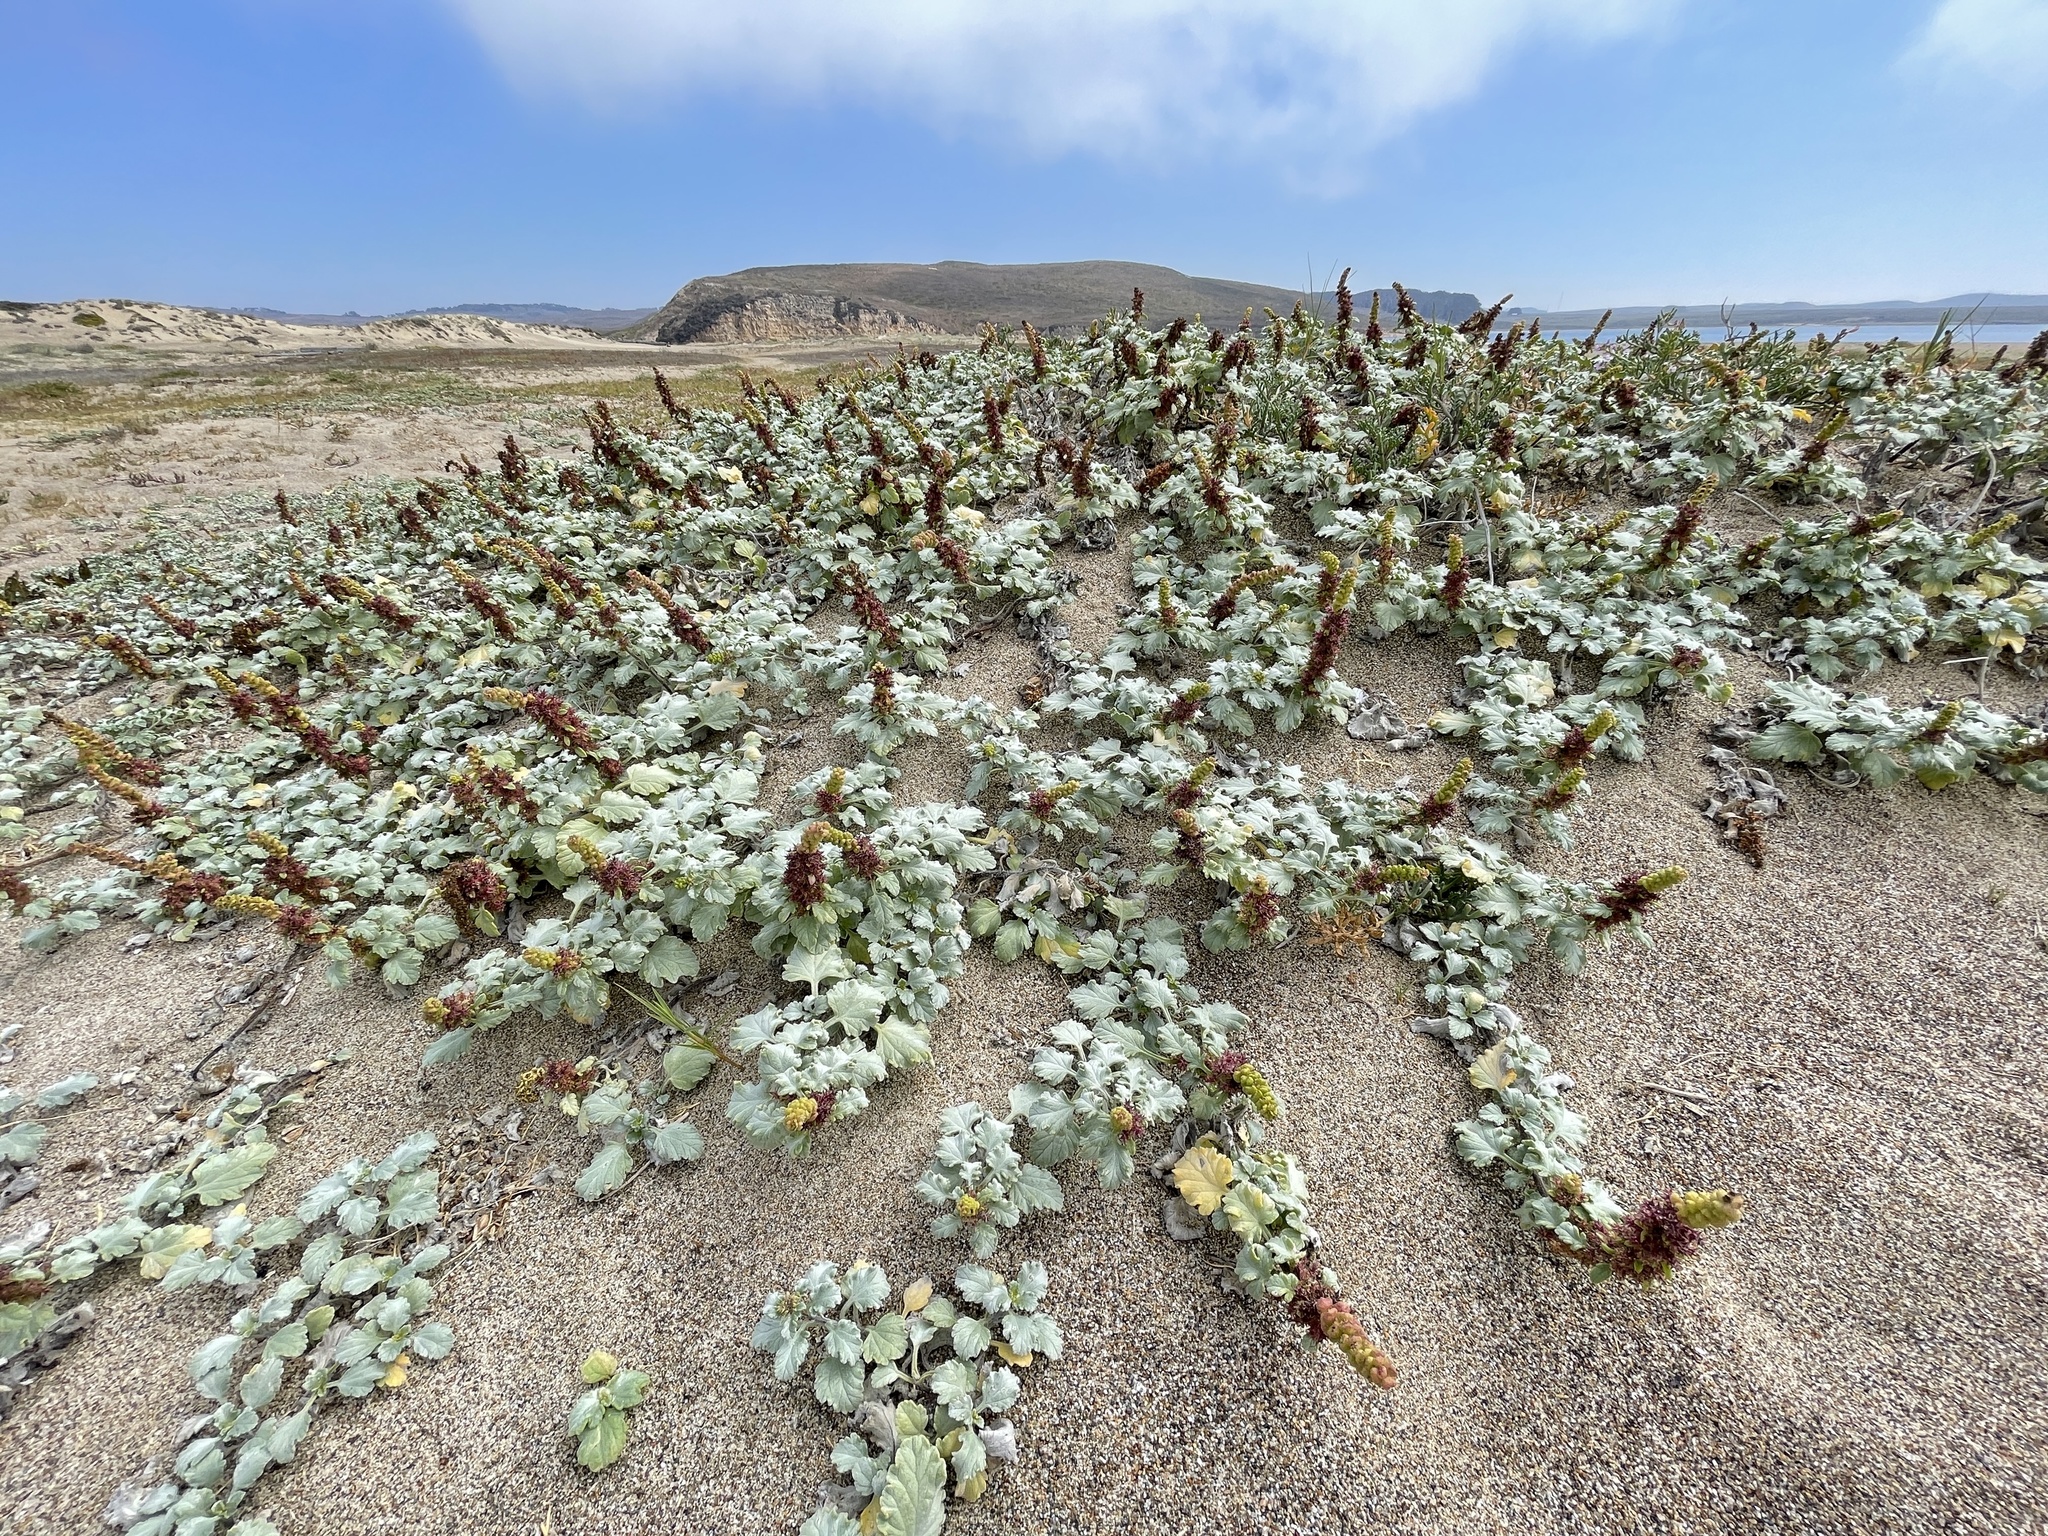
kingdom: Plantae
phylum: Tracheophyta
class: Magnoliopsida
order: Asterales
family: Asteraceae
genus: Ambrosia
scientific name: Ambrosia chamissonis
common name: Beachbur
